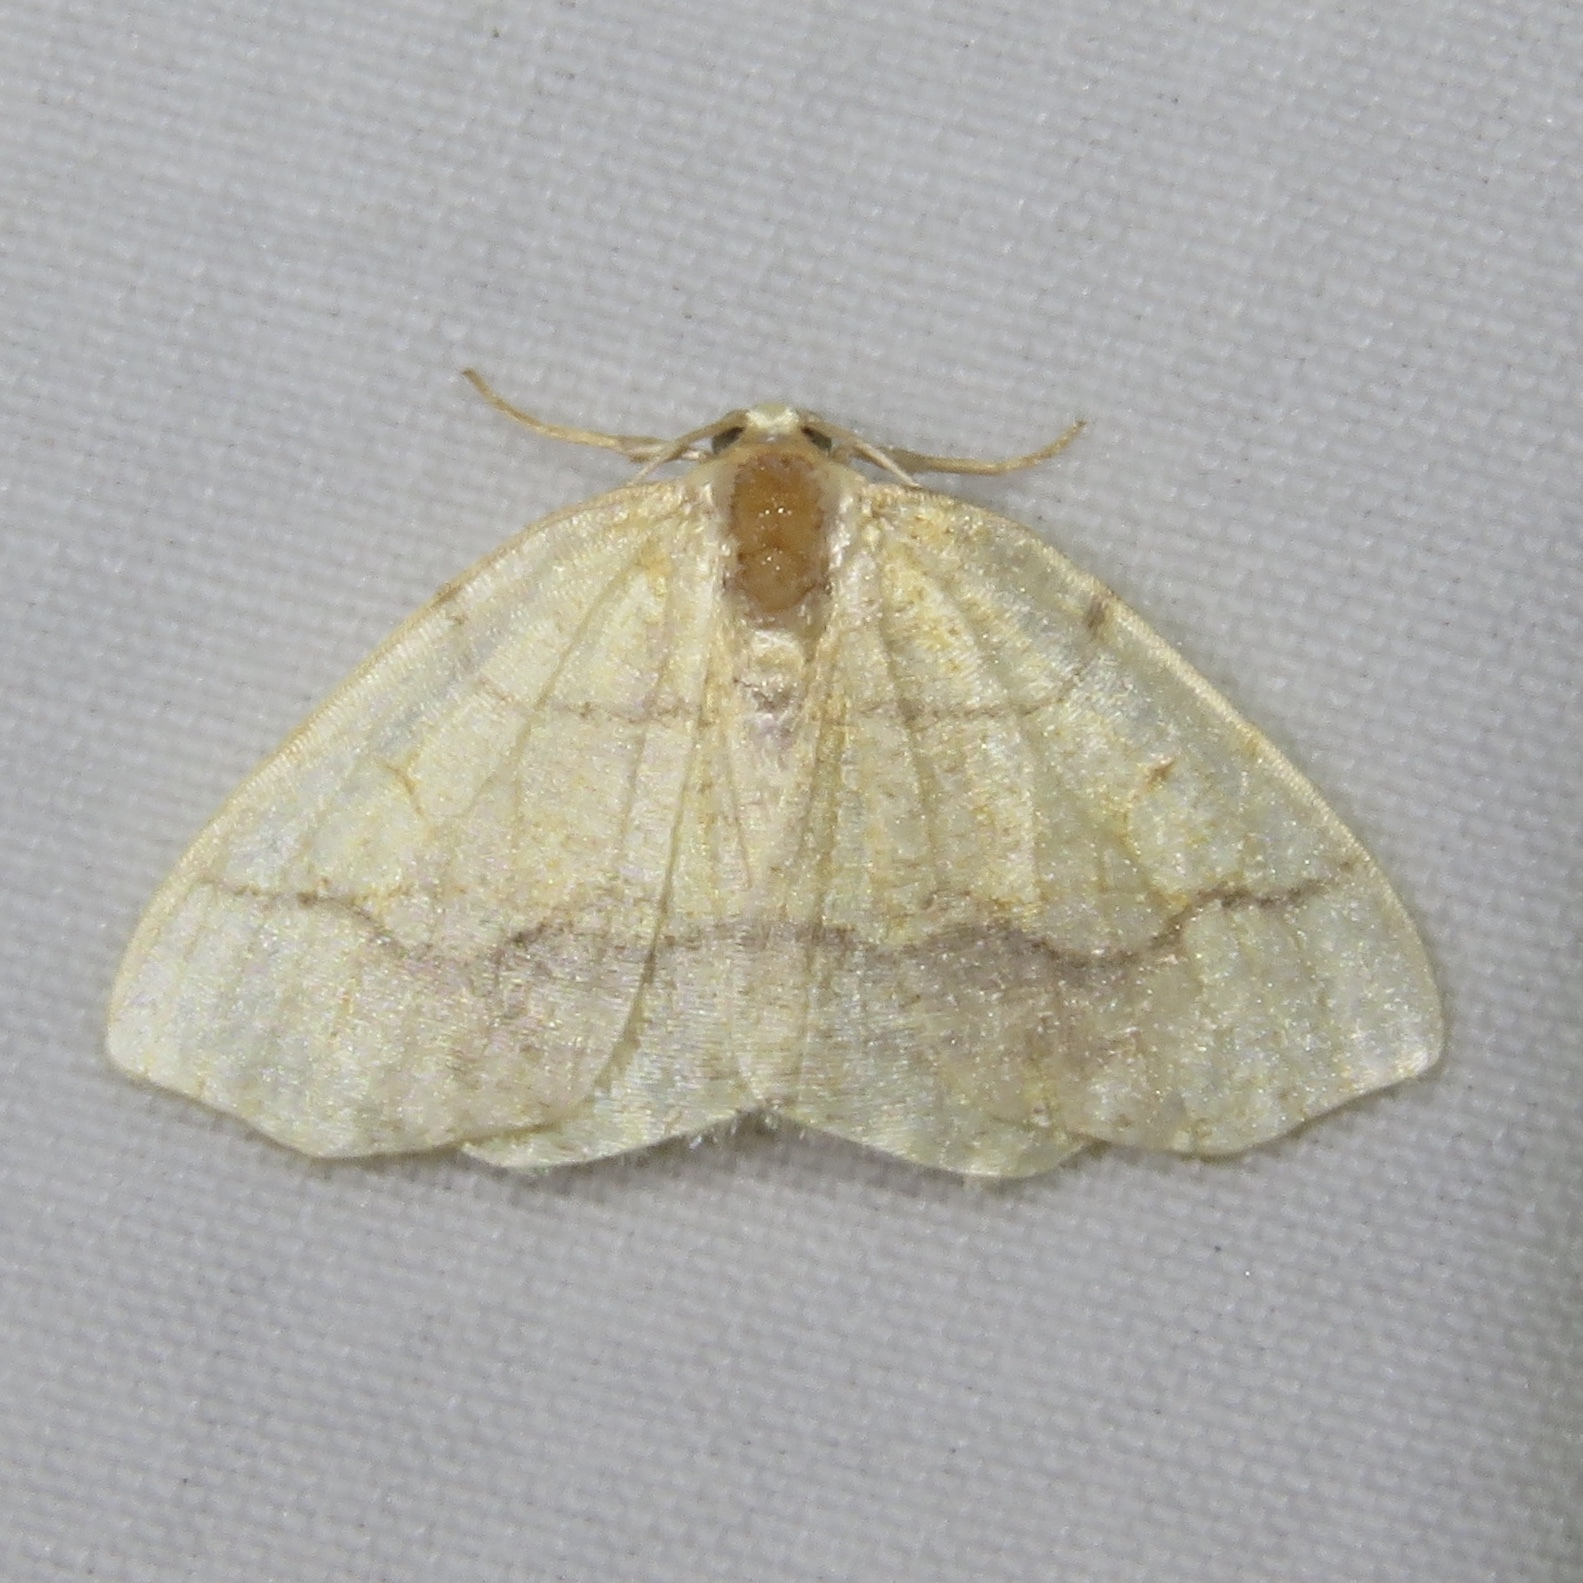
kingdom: Animalia
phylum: Arthropoda
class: Insecta
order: Lepidoptera
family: Geometridae
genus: Nematocampa
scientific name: Nematocampa resistaria
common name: Horned spanworm moth
